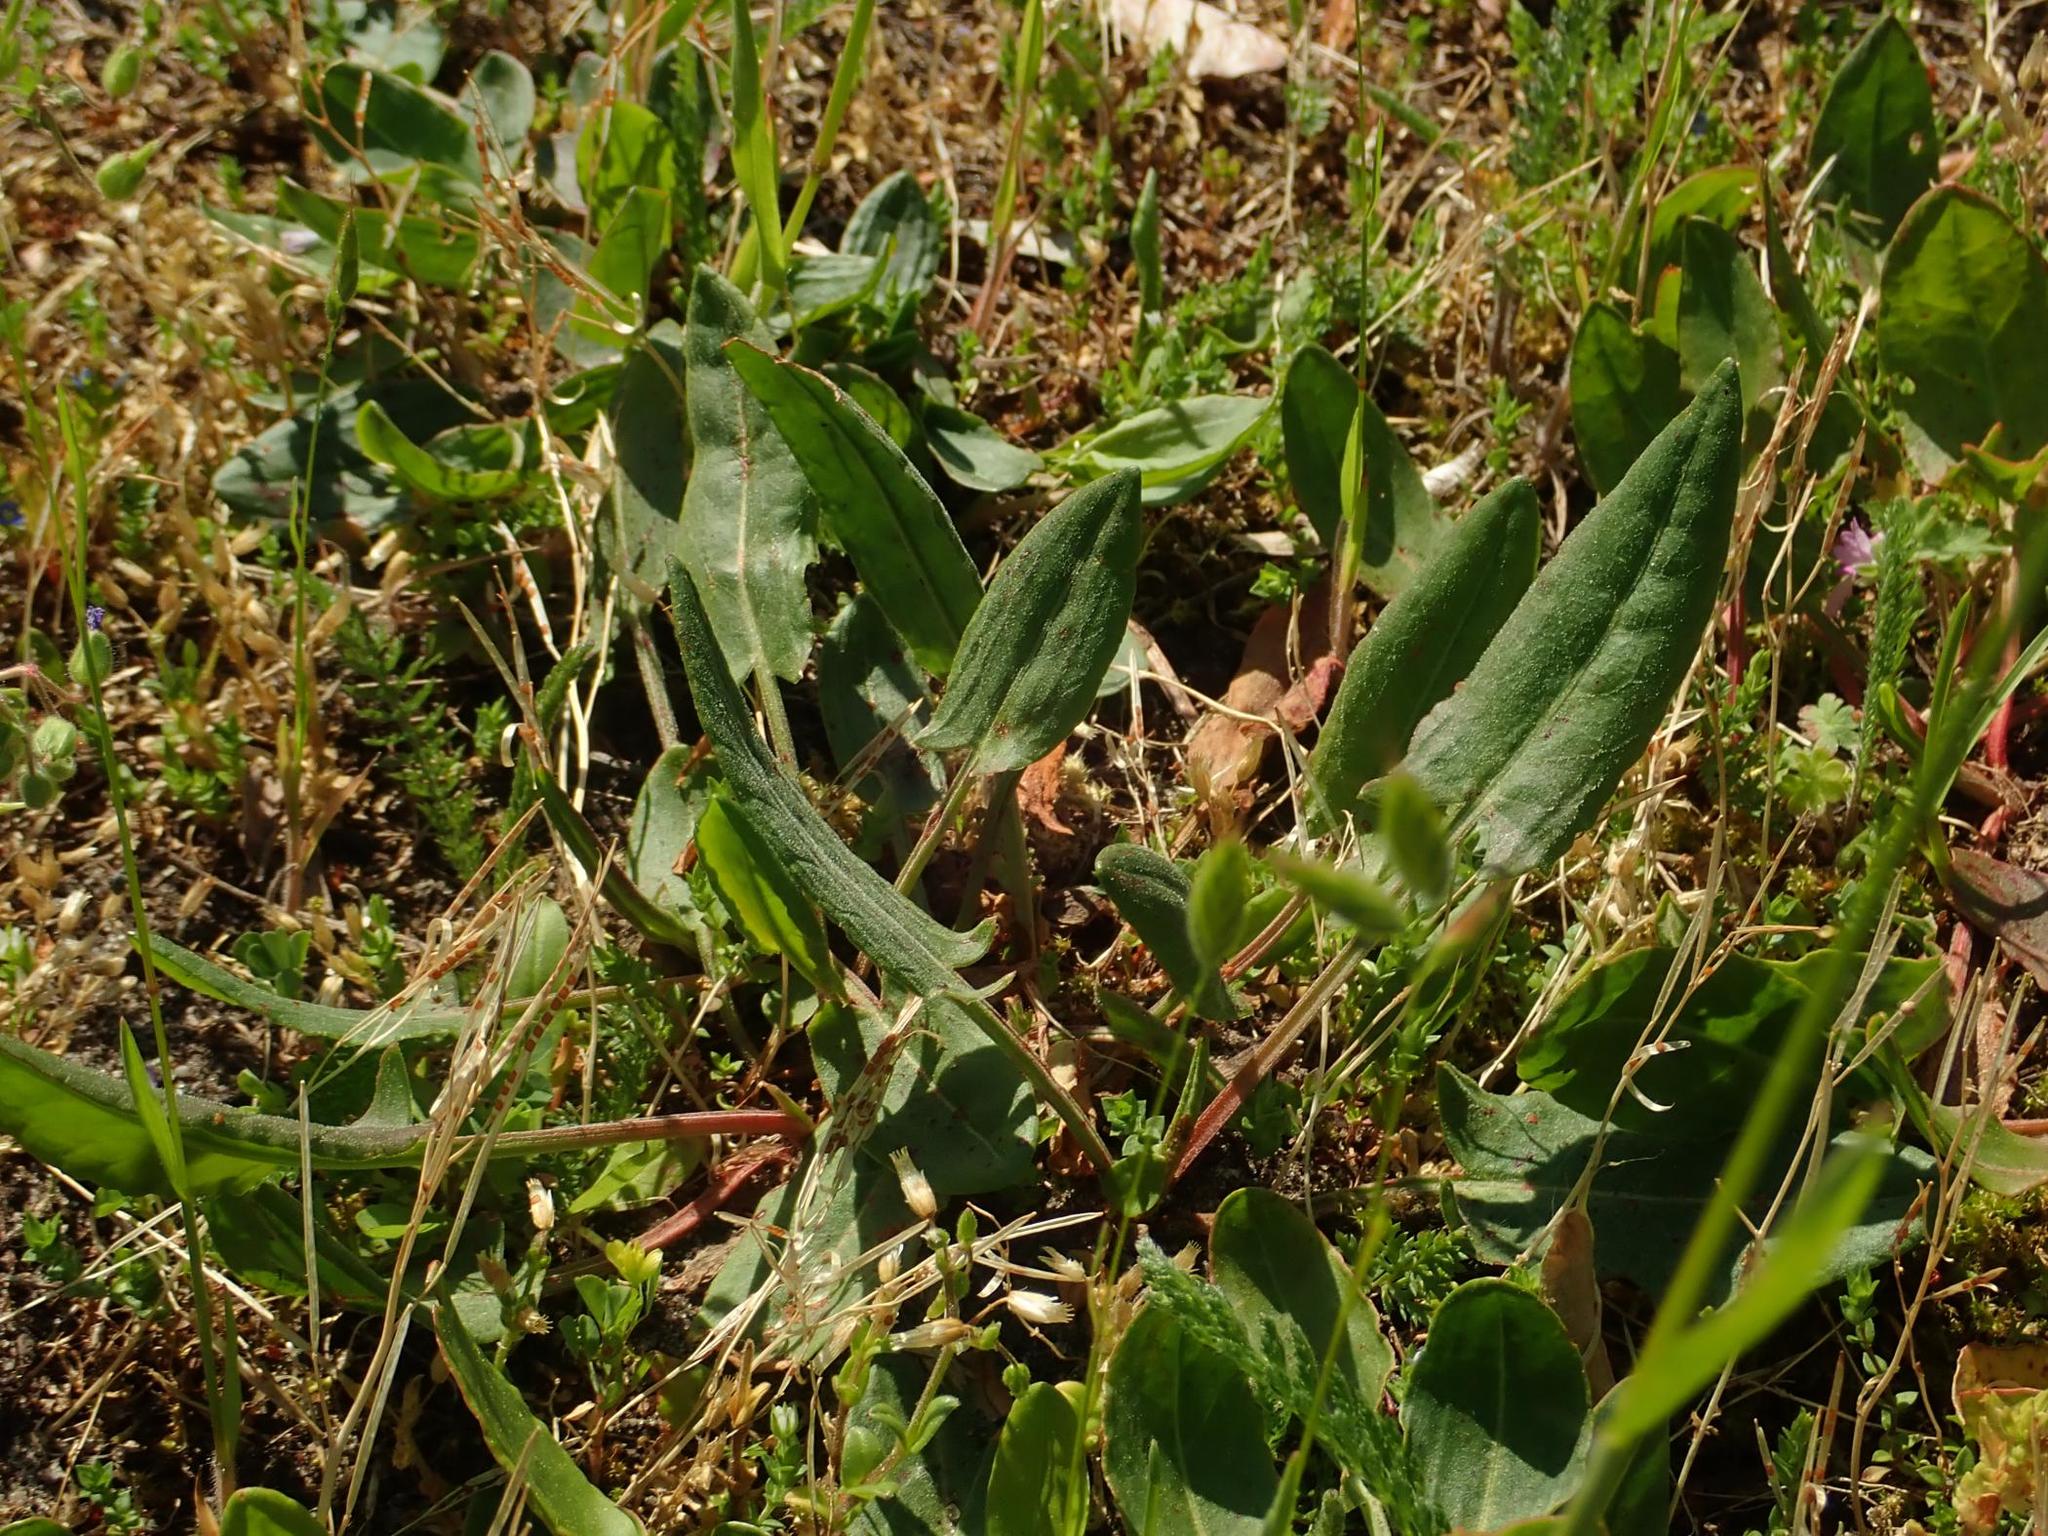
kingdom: Plantae
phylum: Tracheophyta
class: Magnoliopsida
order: Caryophyllales
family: Polygonaceae
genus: Rumex
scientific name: Rumex acetosella
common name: Common sheep sorrel
